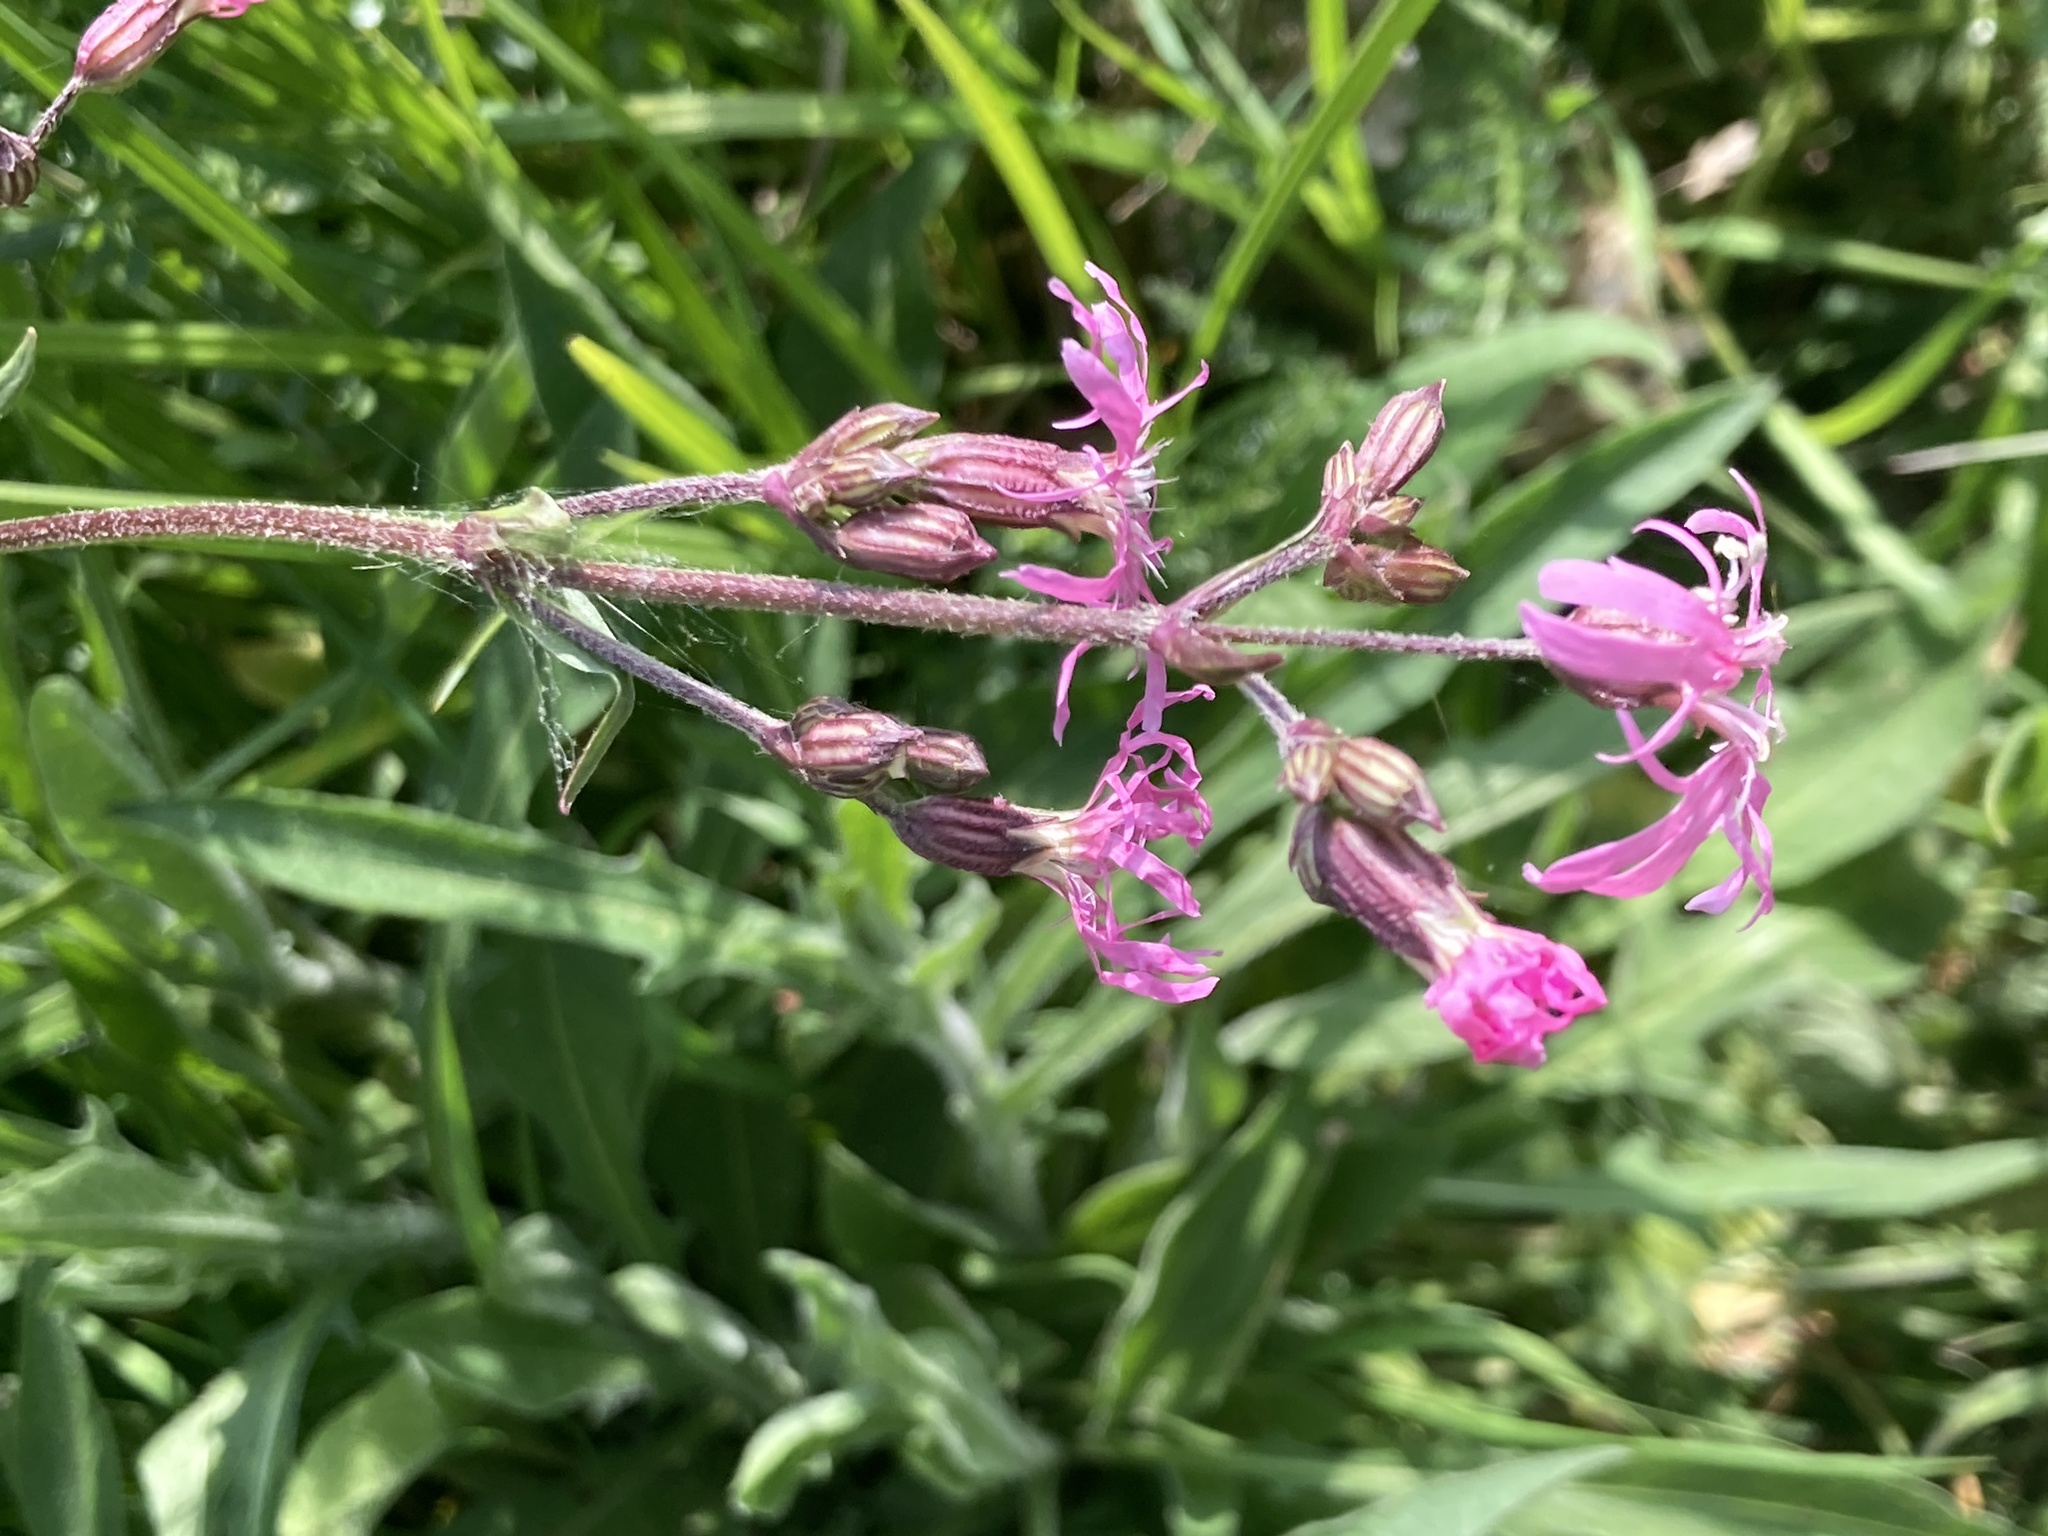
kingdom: Plantae
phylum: Tracheophyta
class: Magnoliopsida
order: Caryophyllales
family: Caryophyllaceae
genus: Silene
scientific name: Silene flos-cuculi
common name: Ragged-robin
